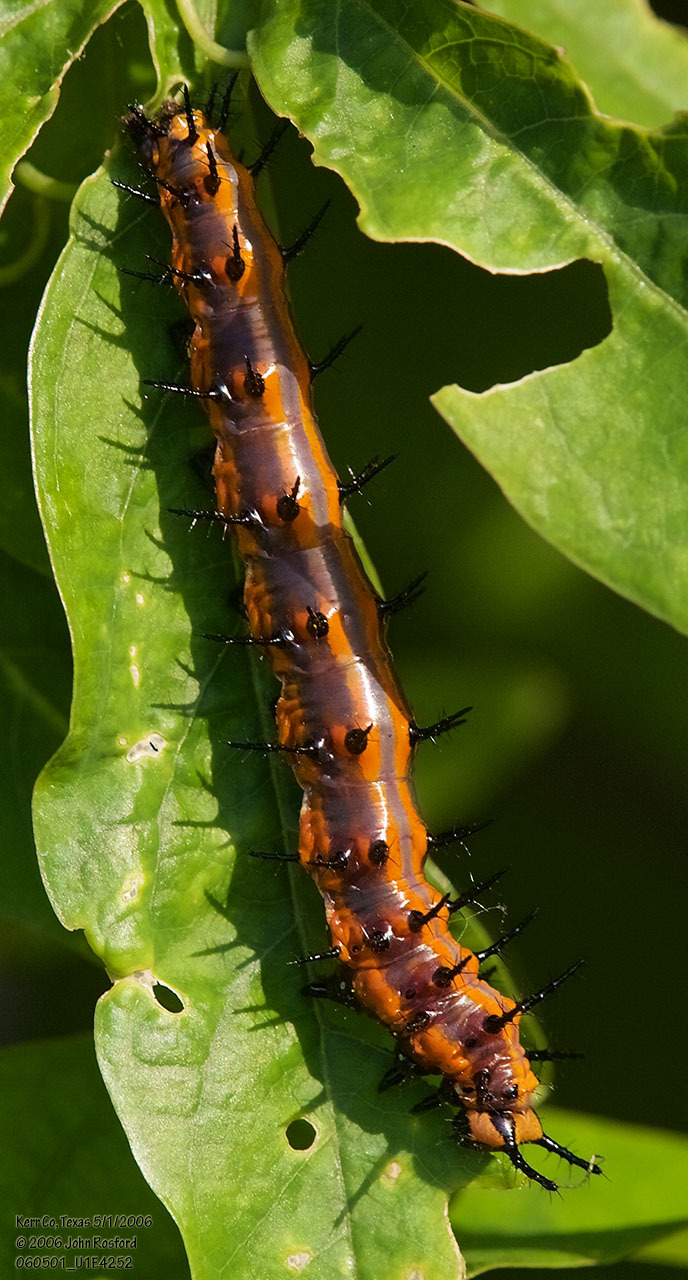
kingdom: Animalia
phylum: Arthropoda
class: Insecta
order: Lepidoptera
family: Nymphalidae
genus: Dione
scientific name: Dione vanillae
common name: Gulf fritillary
